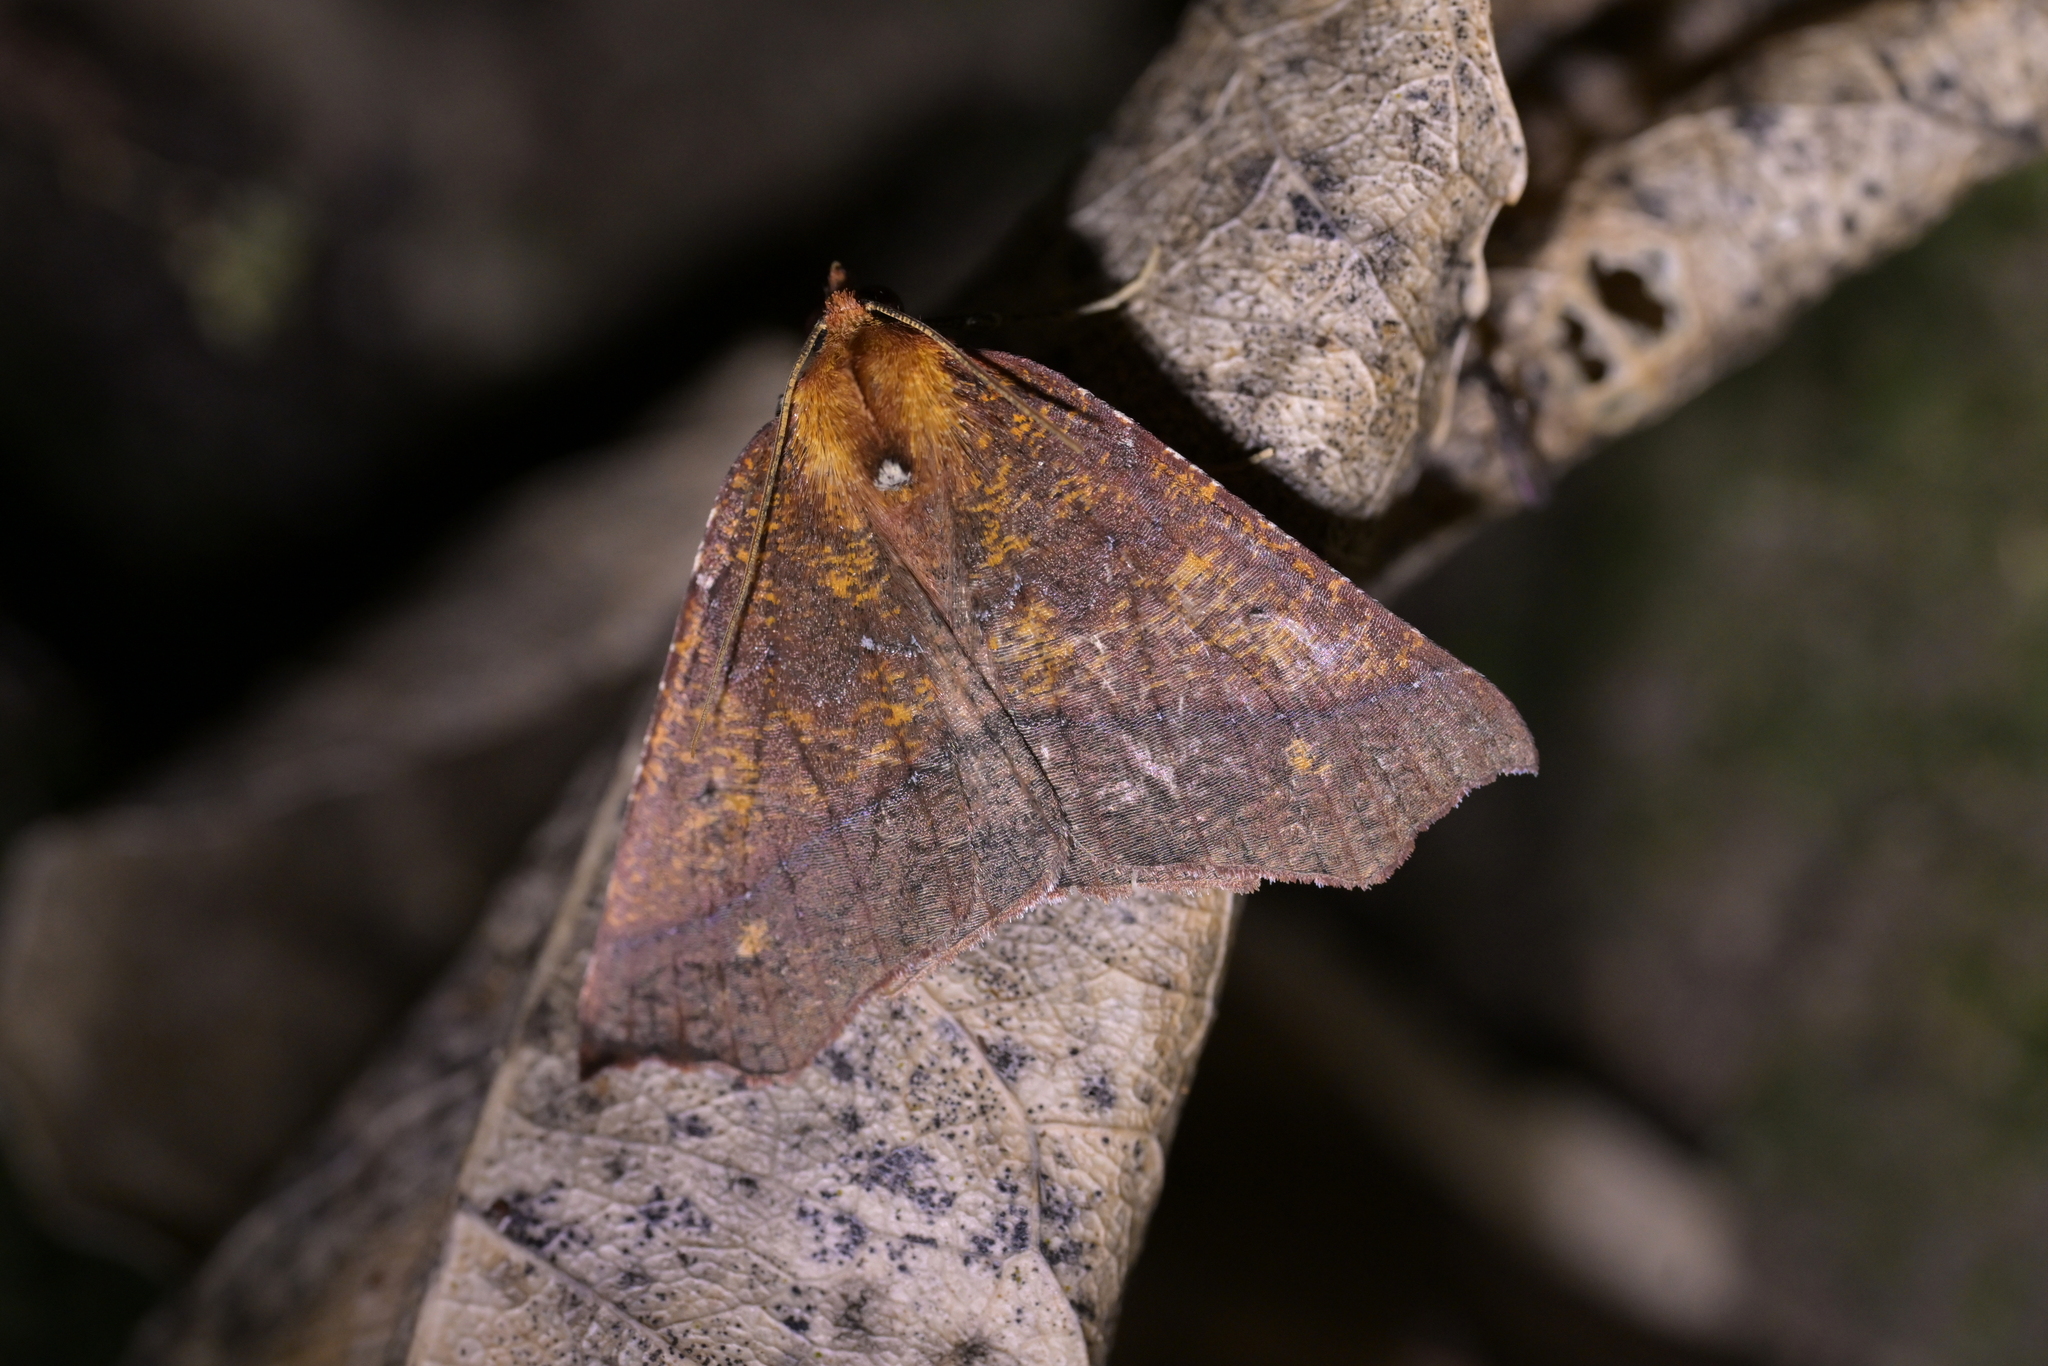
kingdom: Animalia
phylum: Arthropoda
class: Insecta
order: Lepidoptera
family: Geometridae
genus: Ischalis
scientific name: Ischalis nelsonaria
